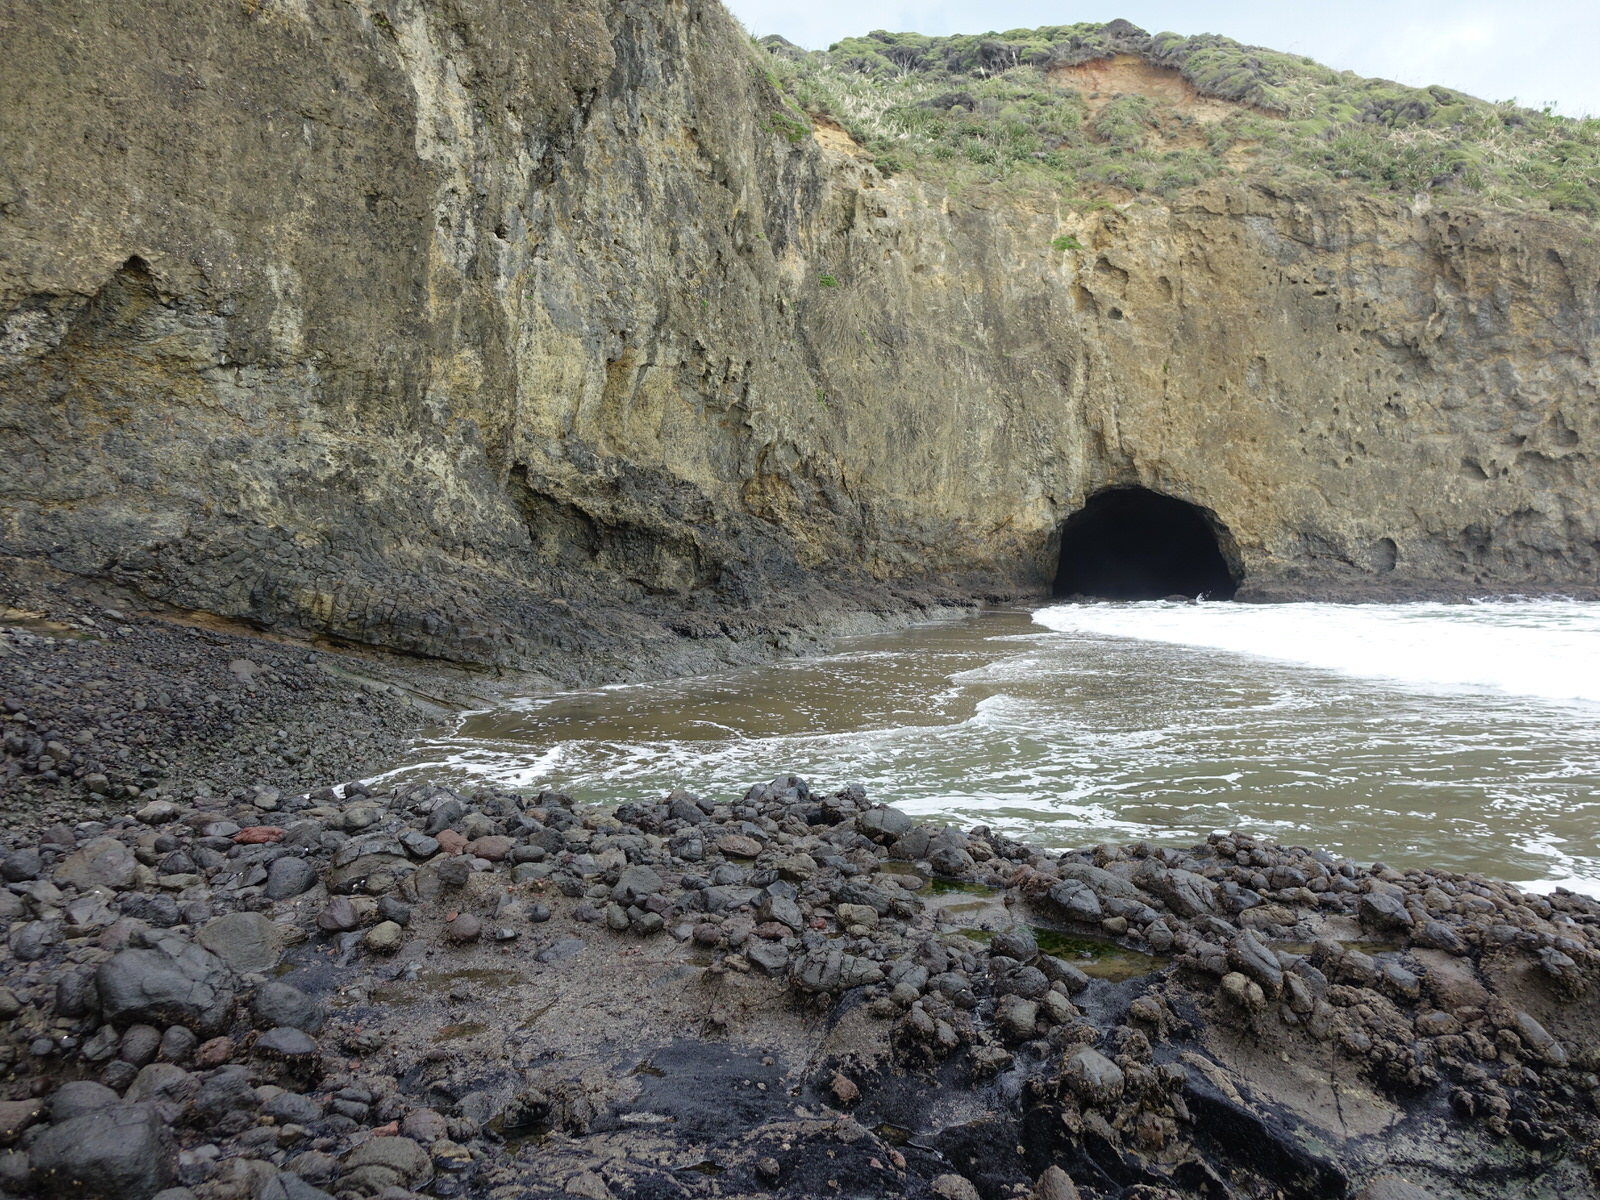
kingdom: Animalia
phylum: Cnidaria
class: Anthozoa
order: Actiniaria
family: Actiniidae
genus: Oulactis
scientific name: Oulactis magna
